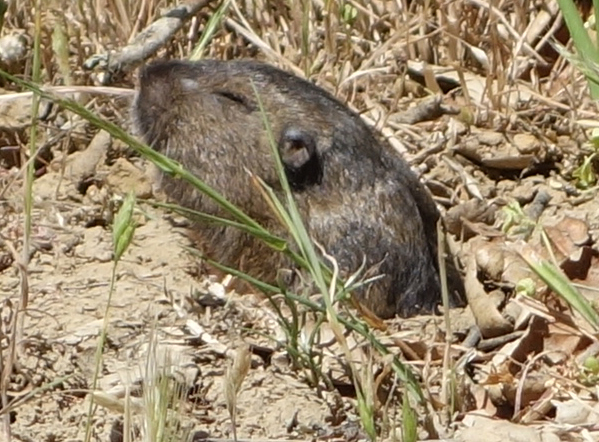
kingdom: Animalia
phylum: Chordata
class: Mammalia
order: Rodentia
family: Geomyidae
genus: Thomomys
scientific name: Thomomys bottae
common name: Botta's pocket gopher
